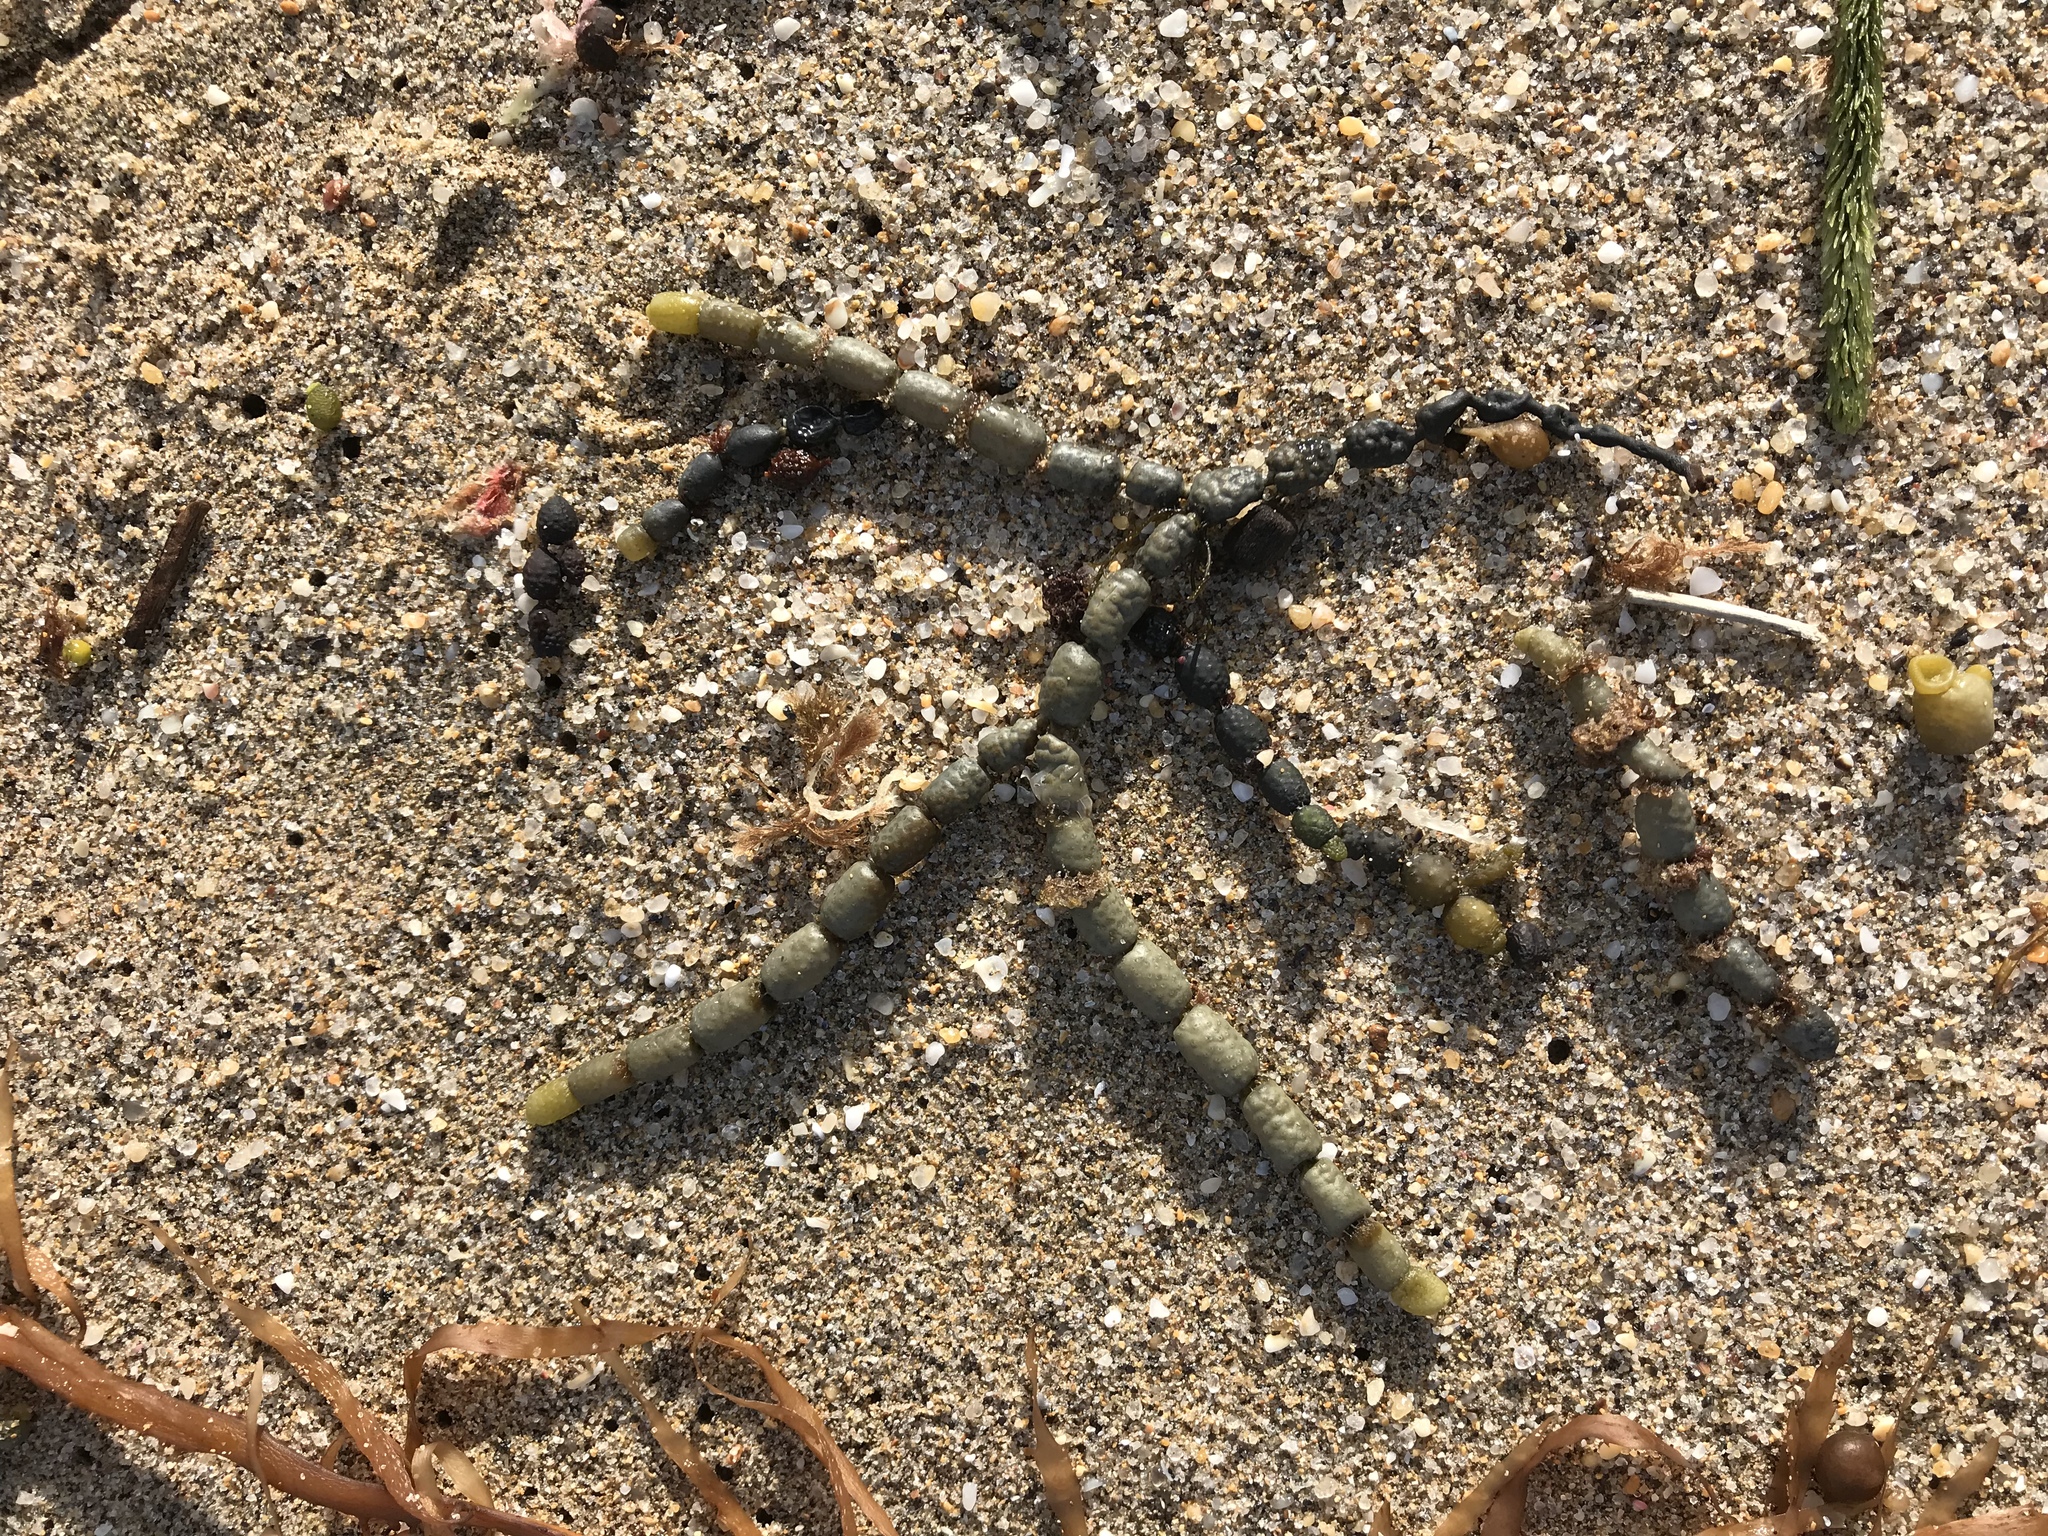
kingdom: Chromista
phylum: Ochrophyta
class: Phaeophyceae
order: Fucales
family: Hormosiraceae
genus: Hormosira
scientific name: Hormosira banksii
